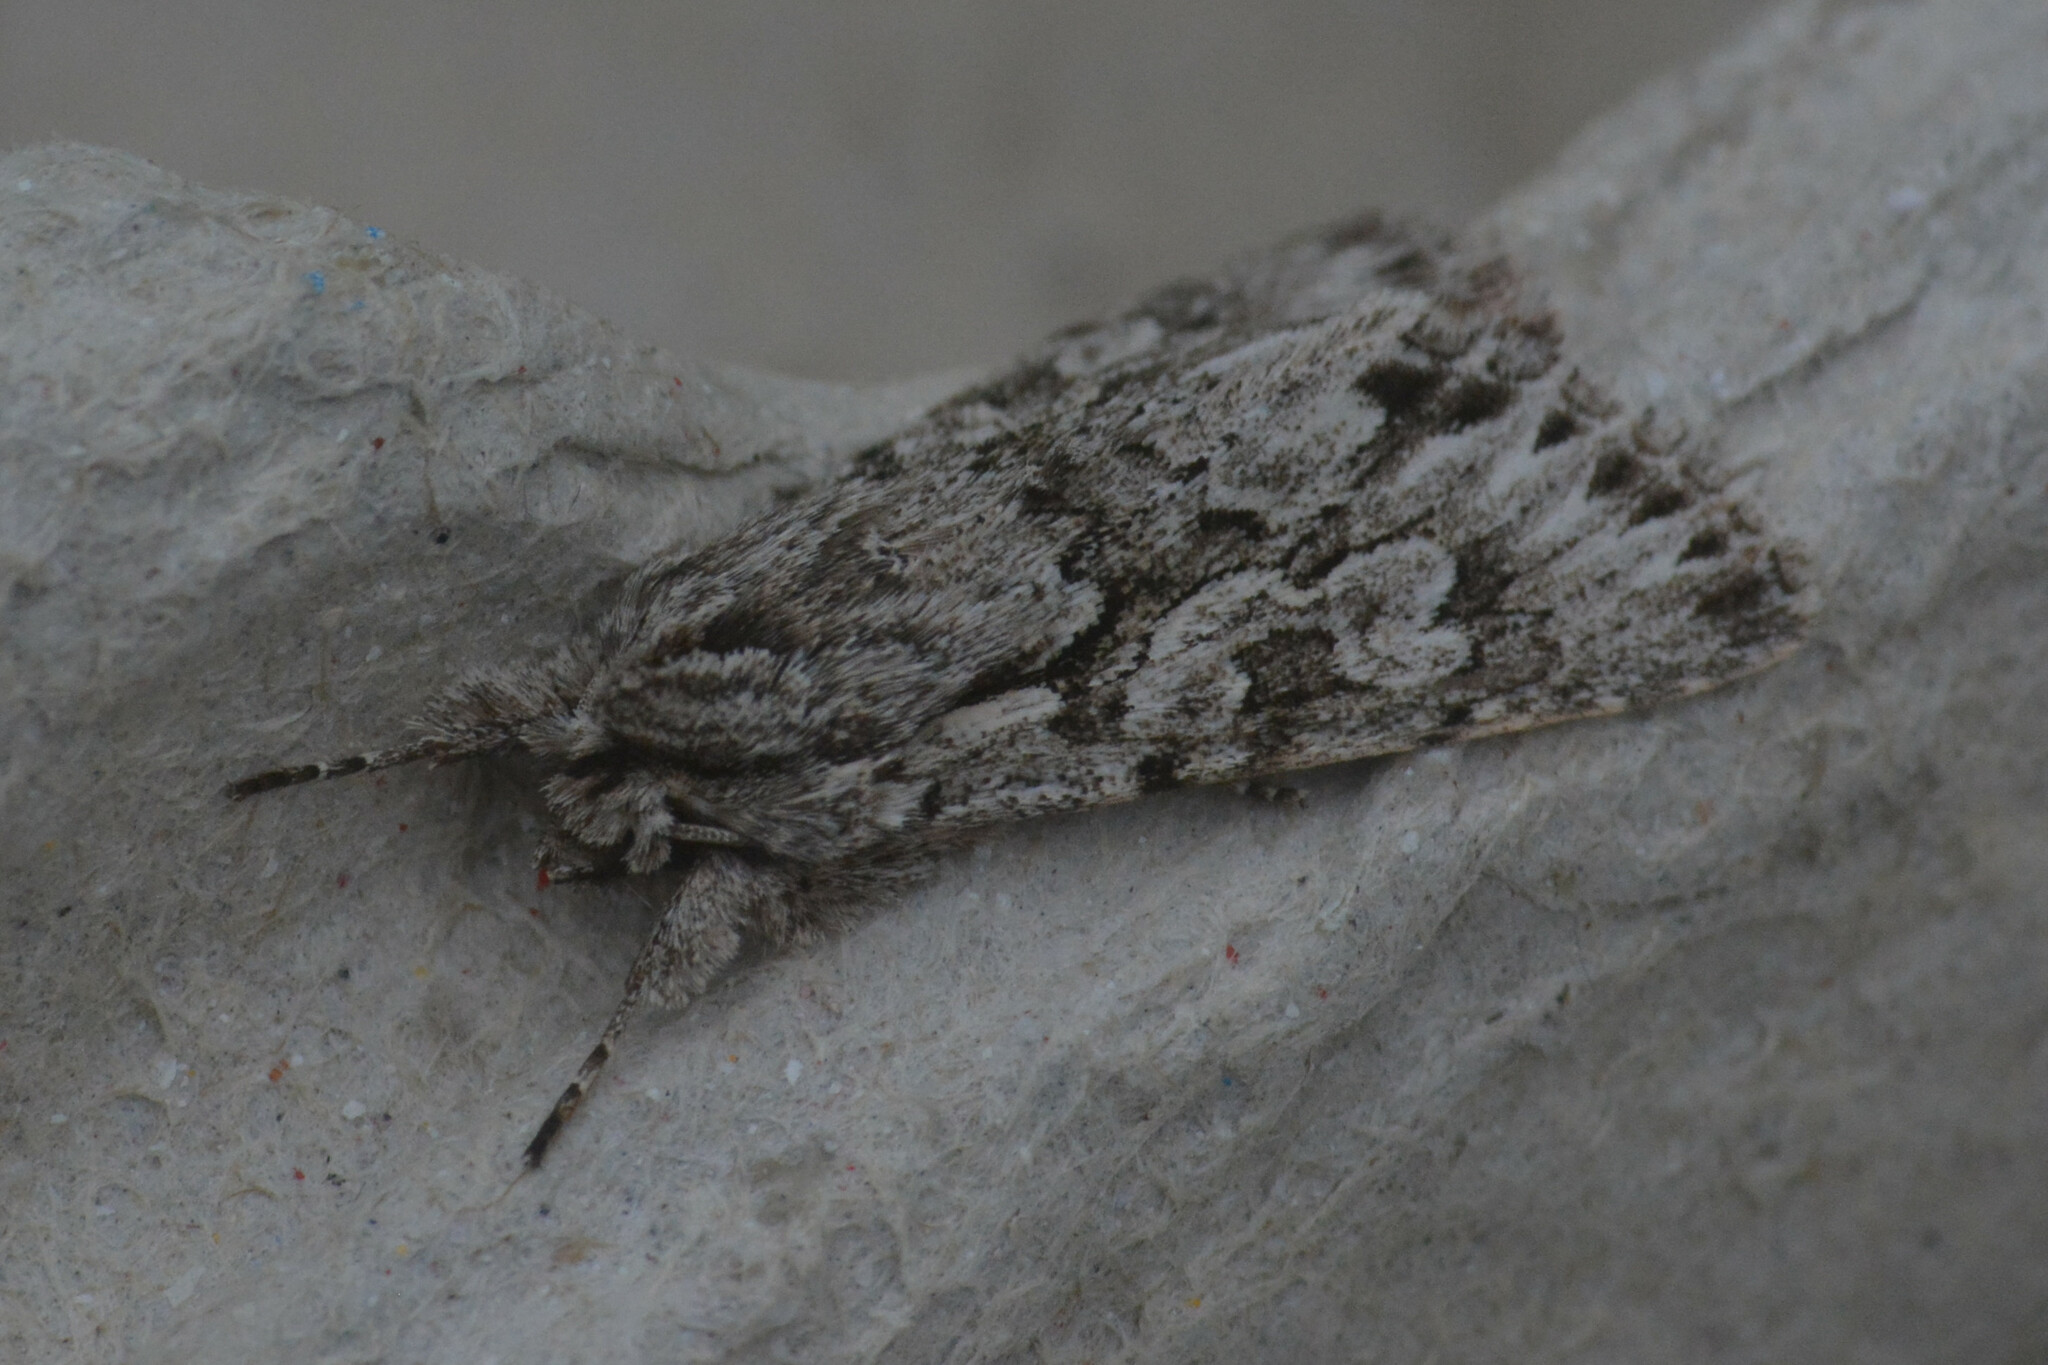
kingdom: Animalia
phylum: Arthropoda
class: Insecta
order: Lepidoptera
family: Noctuidae
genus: Xylocampa
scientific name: Xylocampa areola
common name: Early grey
